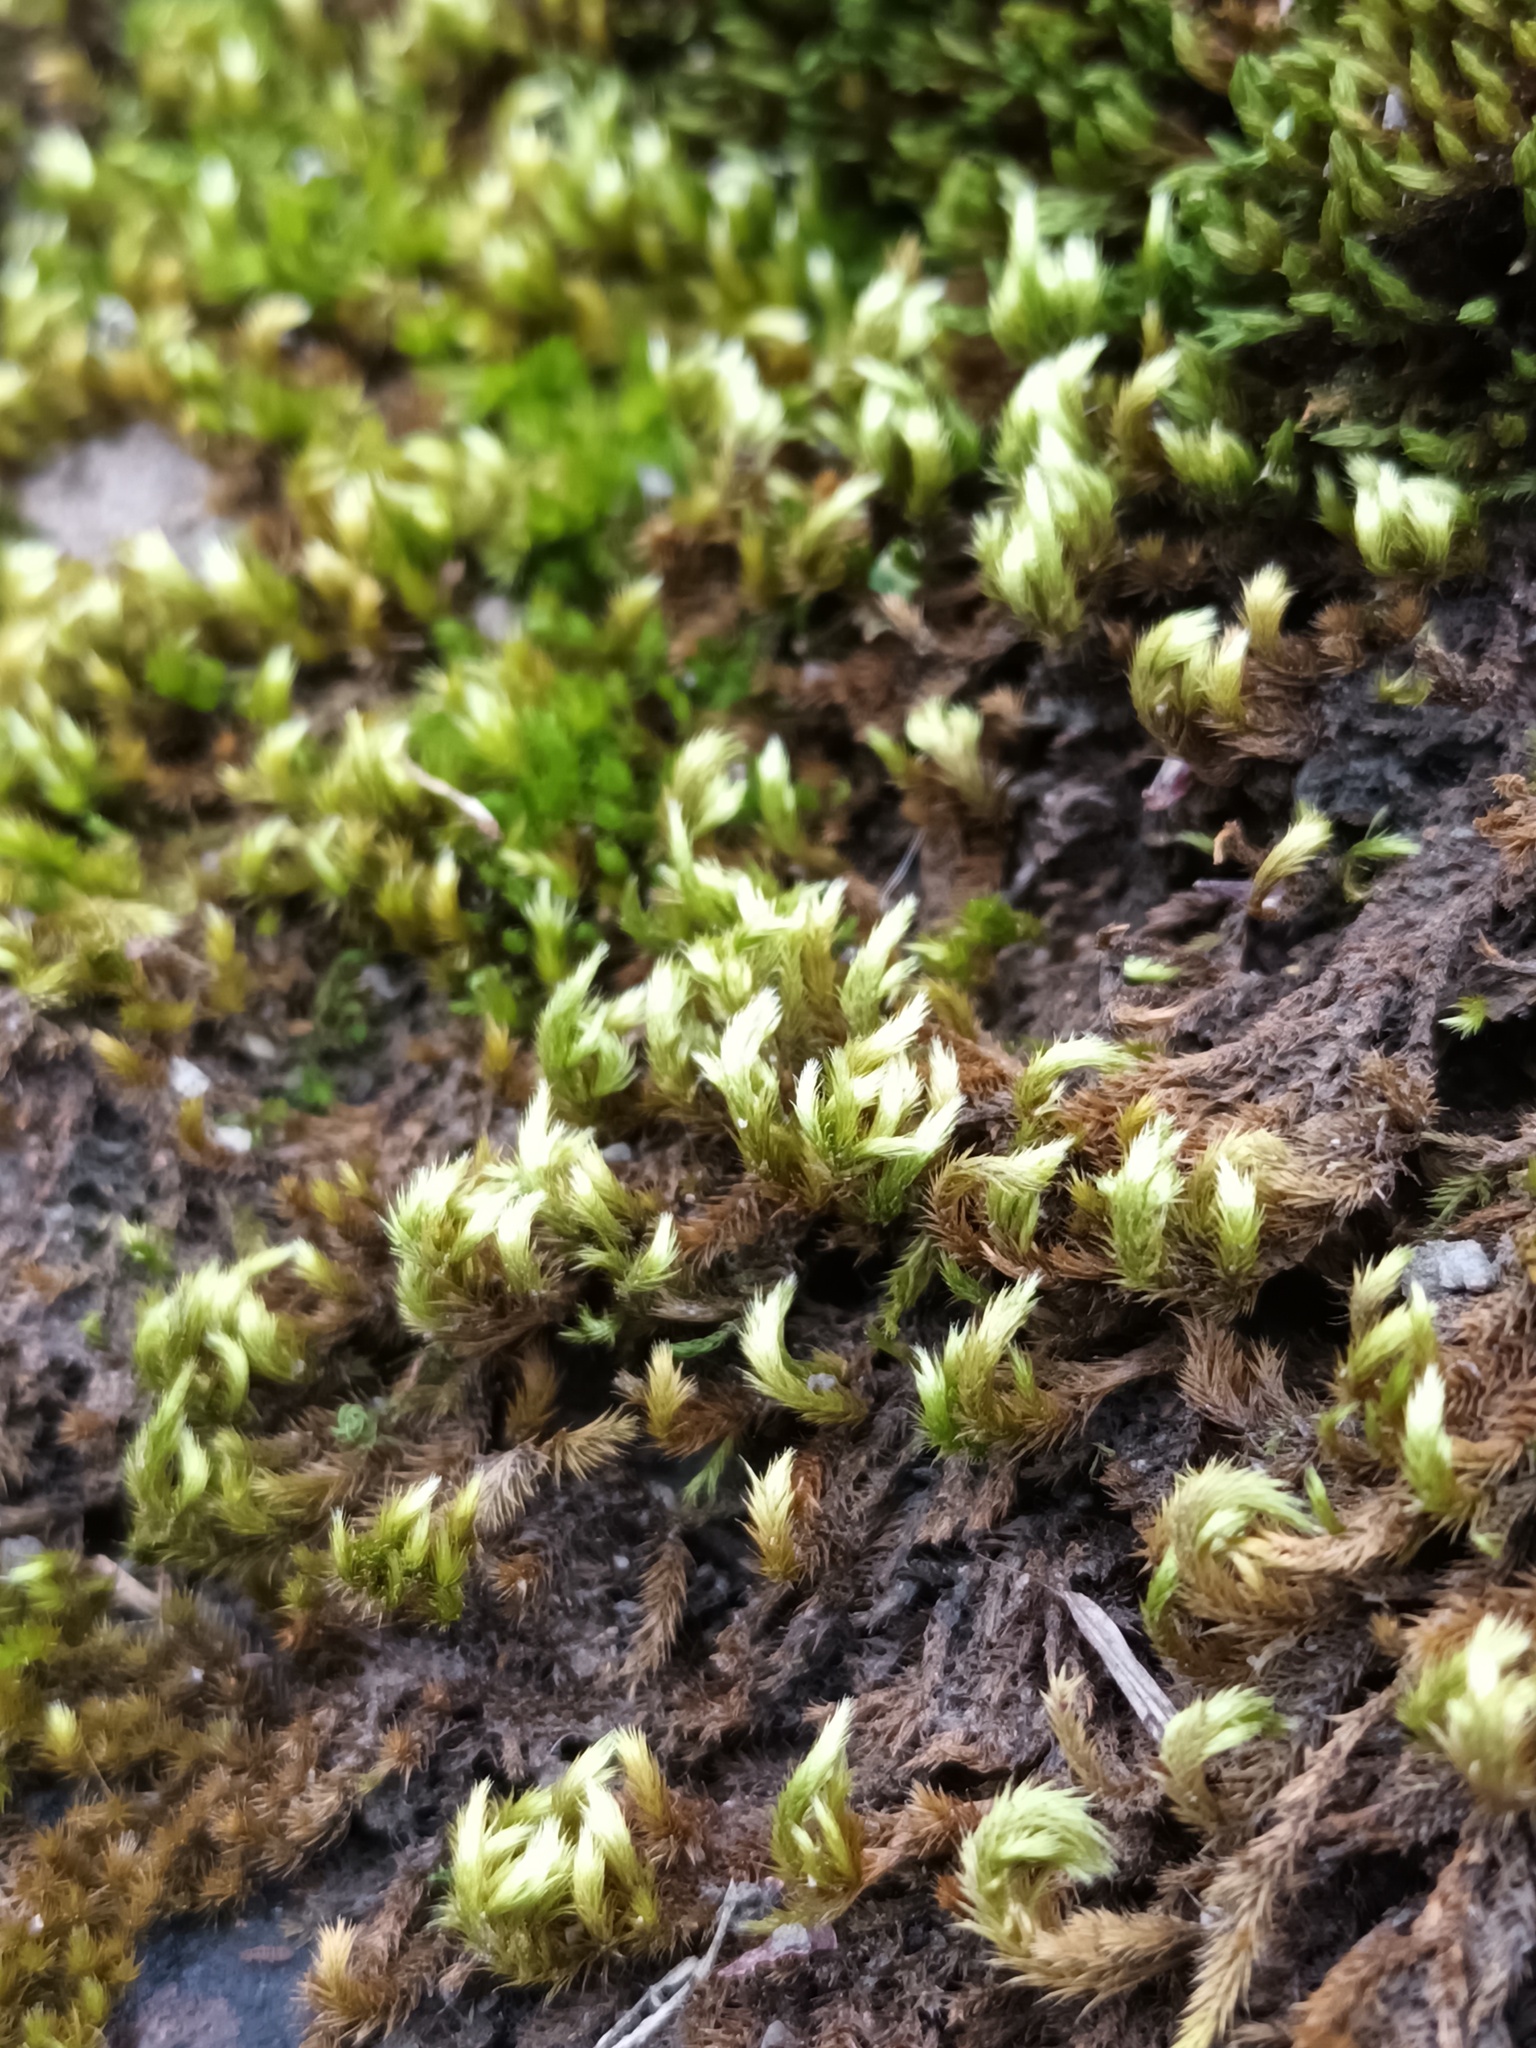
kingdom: Plantae
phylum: Bryophyta
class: Bryopsida
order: Hypnales
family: Brachytheciaceae
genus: Homalothecium
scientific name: Homalothecium sericeum
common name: Silky wall feather-moss
